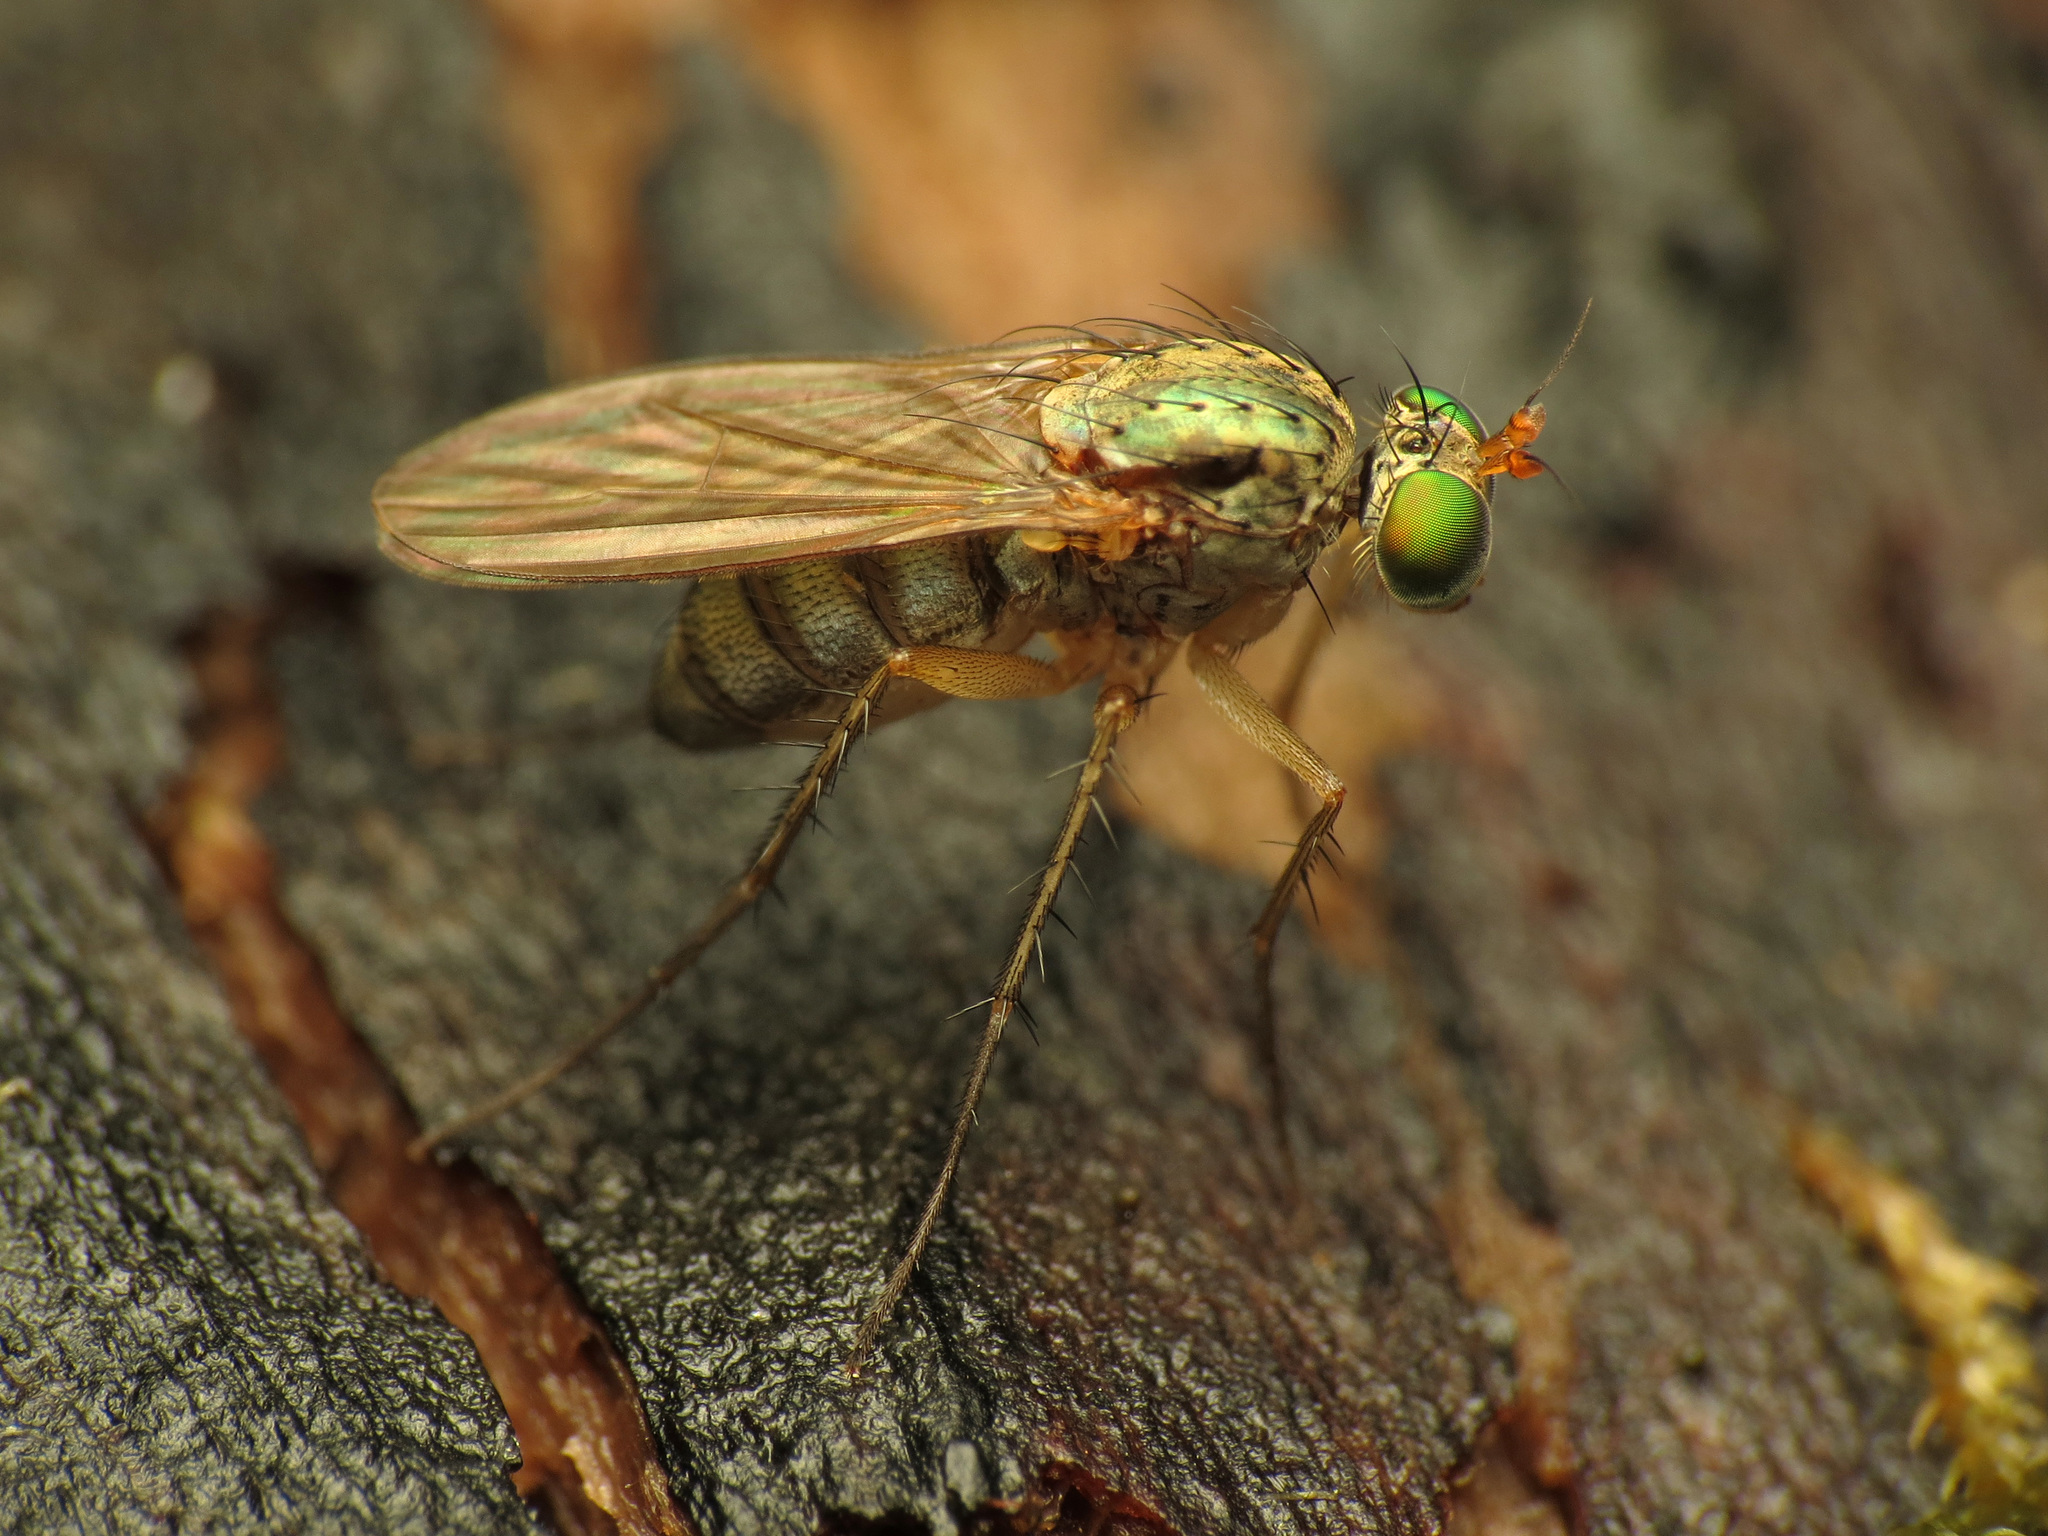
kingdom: Animalia
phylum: Arthropoda
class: Insecta
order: Diptera
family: Dolichopodidae
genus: Dolichopus
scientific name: Dolichopus scapularis
